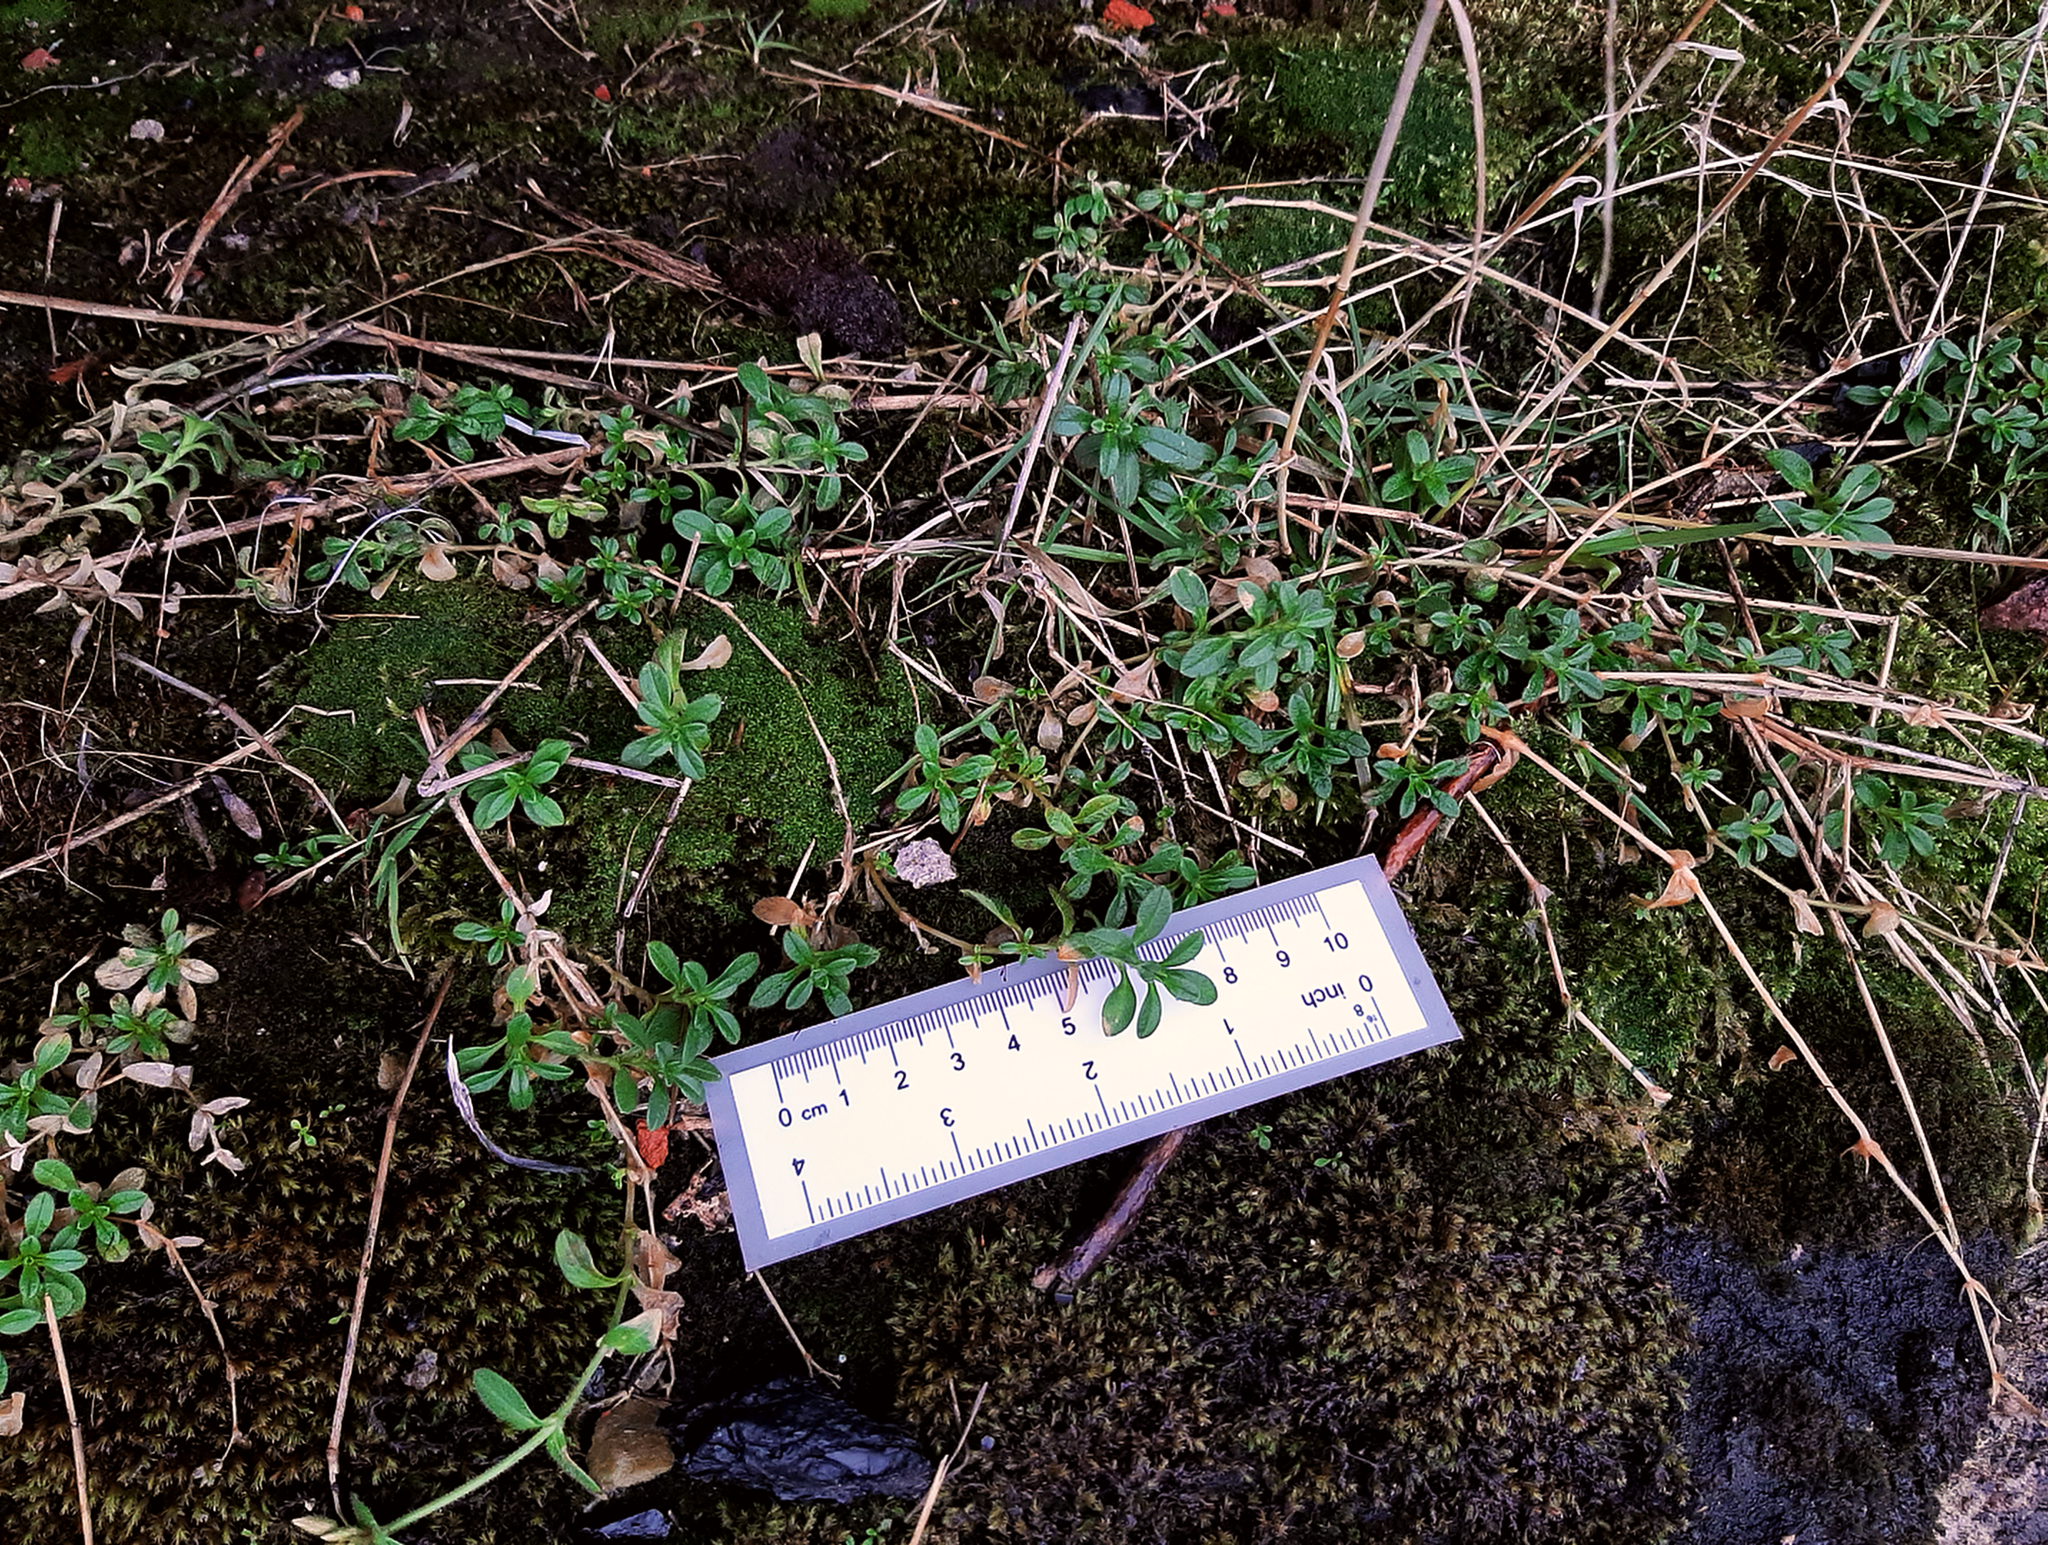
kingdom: Plantae
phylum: Tracheophyta
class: Magnoliopsida
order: Caryophyllales
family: Caryophyllaceae
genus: Cerastium
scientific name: Cerastium holosteoides
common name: Big chickweed
